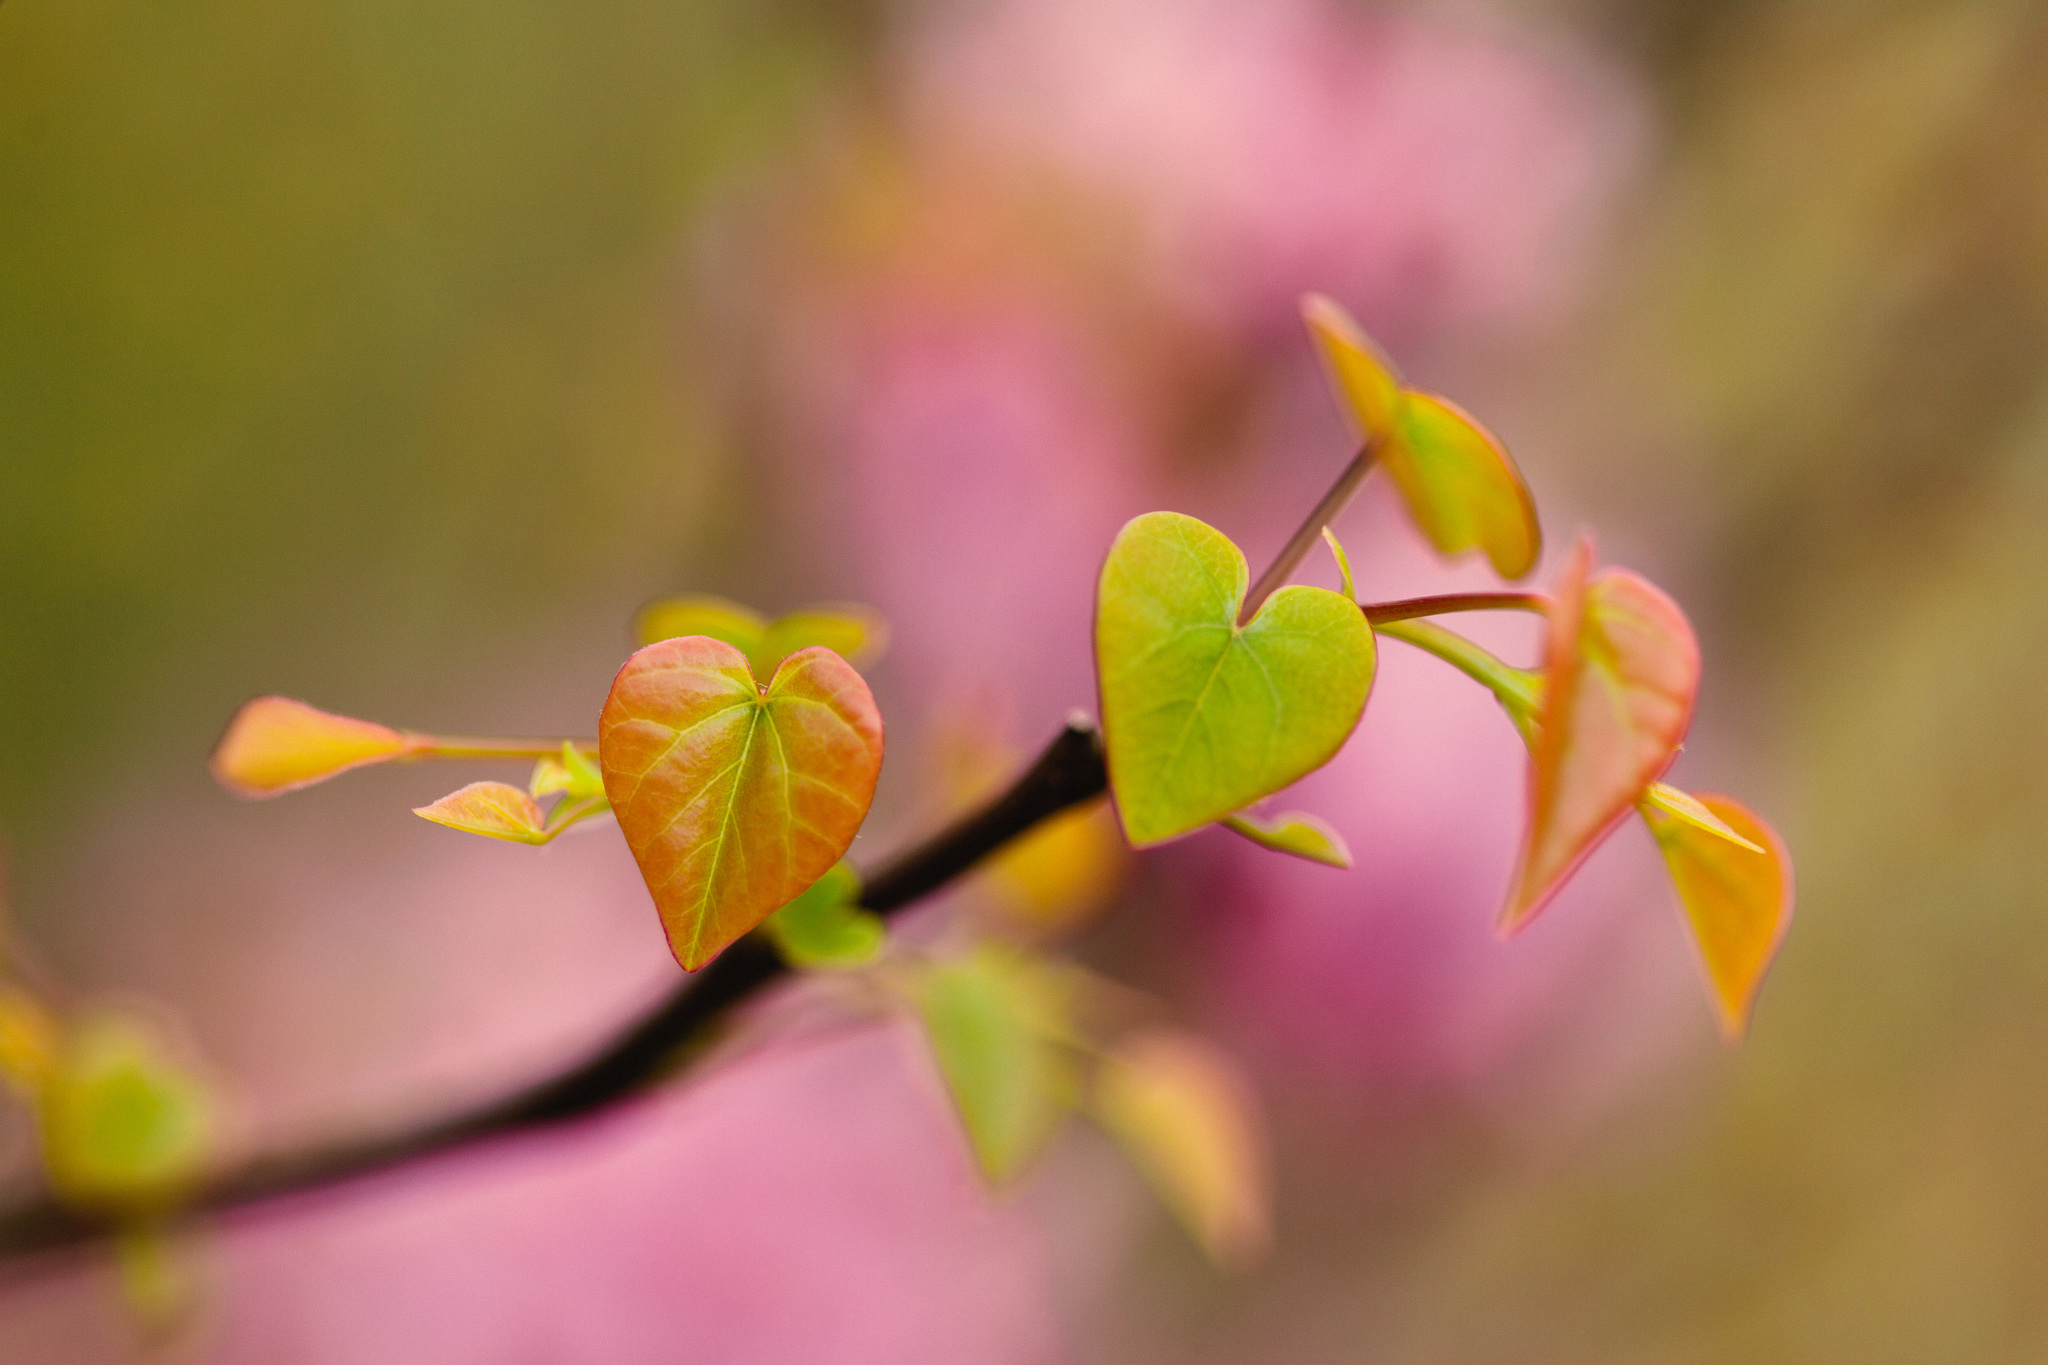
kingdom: Plantae
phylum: Tracheophyta
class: Magnoliopsida
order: Fabales
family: Fabaceae
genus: Cercis
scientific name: Cercis canadensis
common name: Eastern redbud
